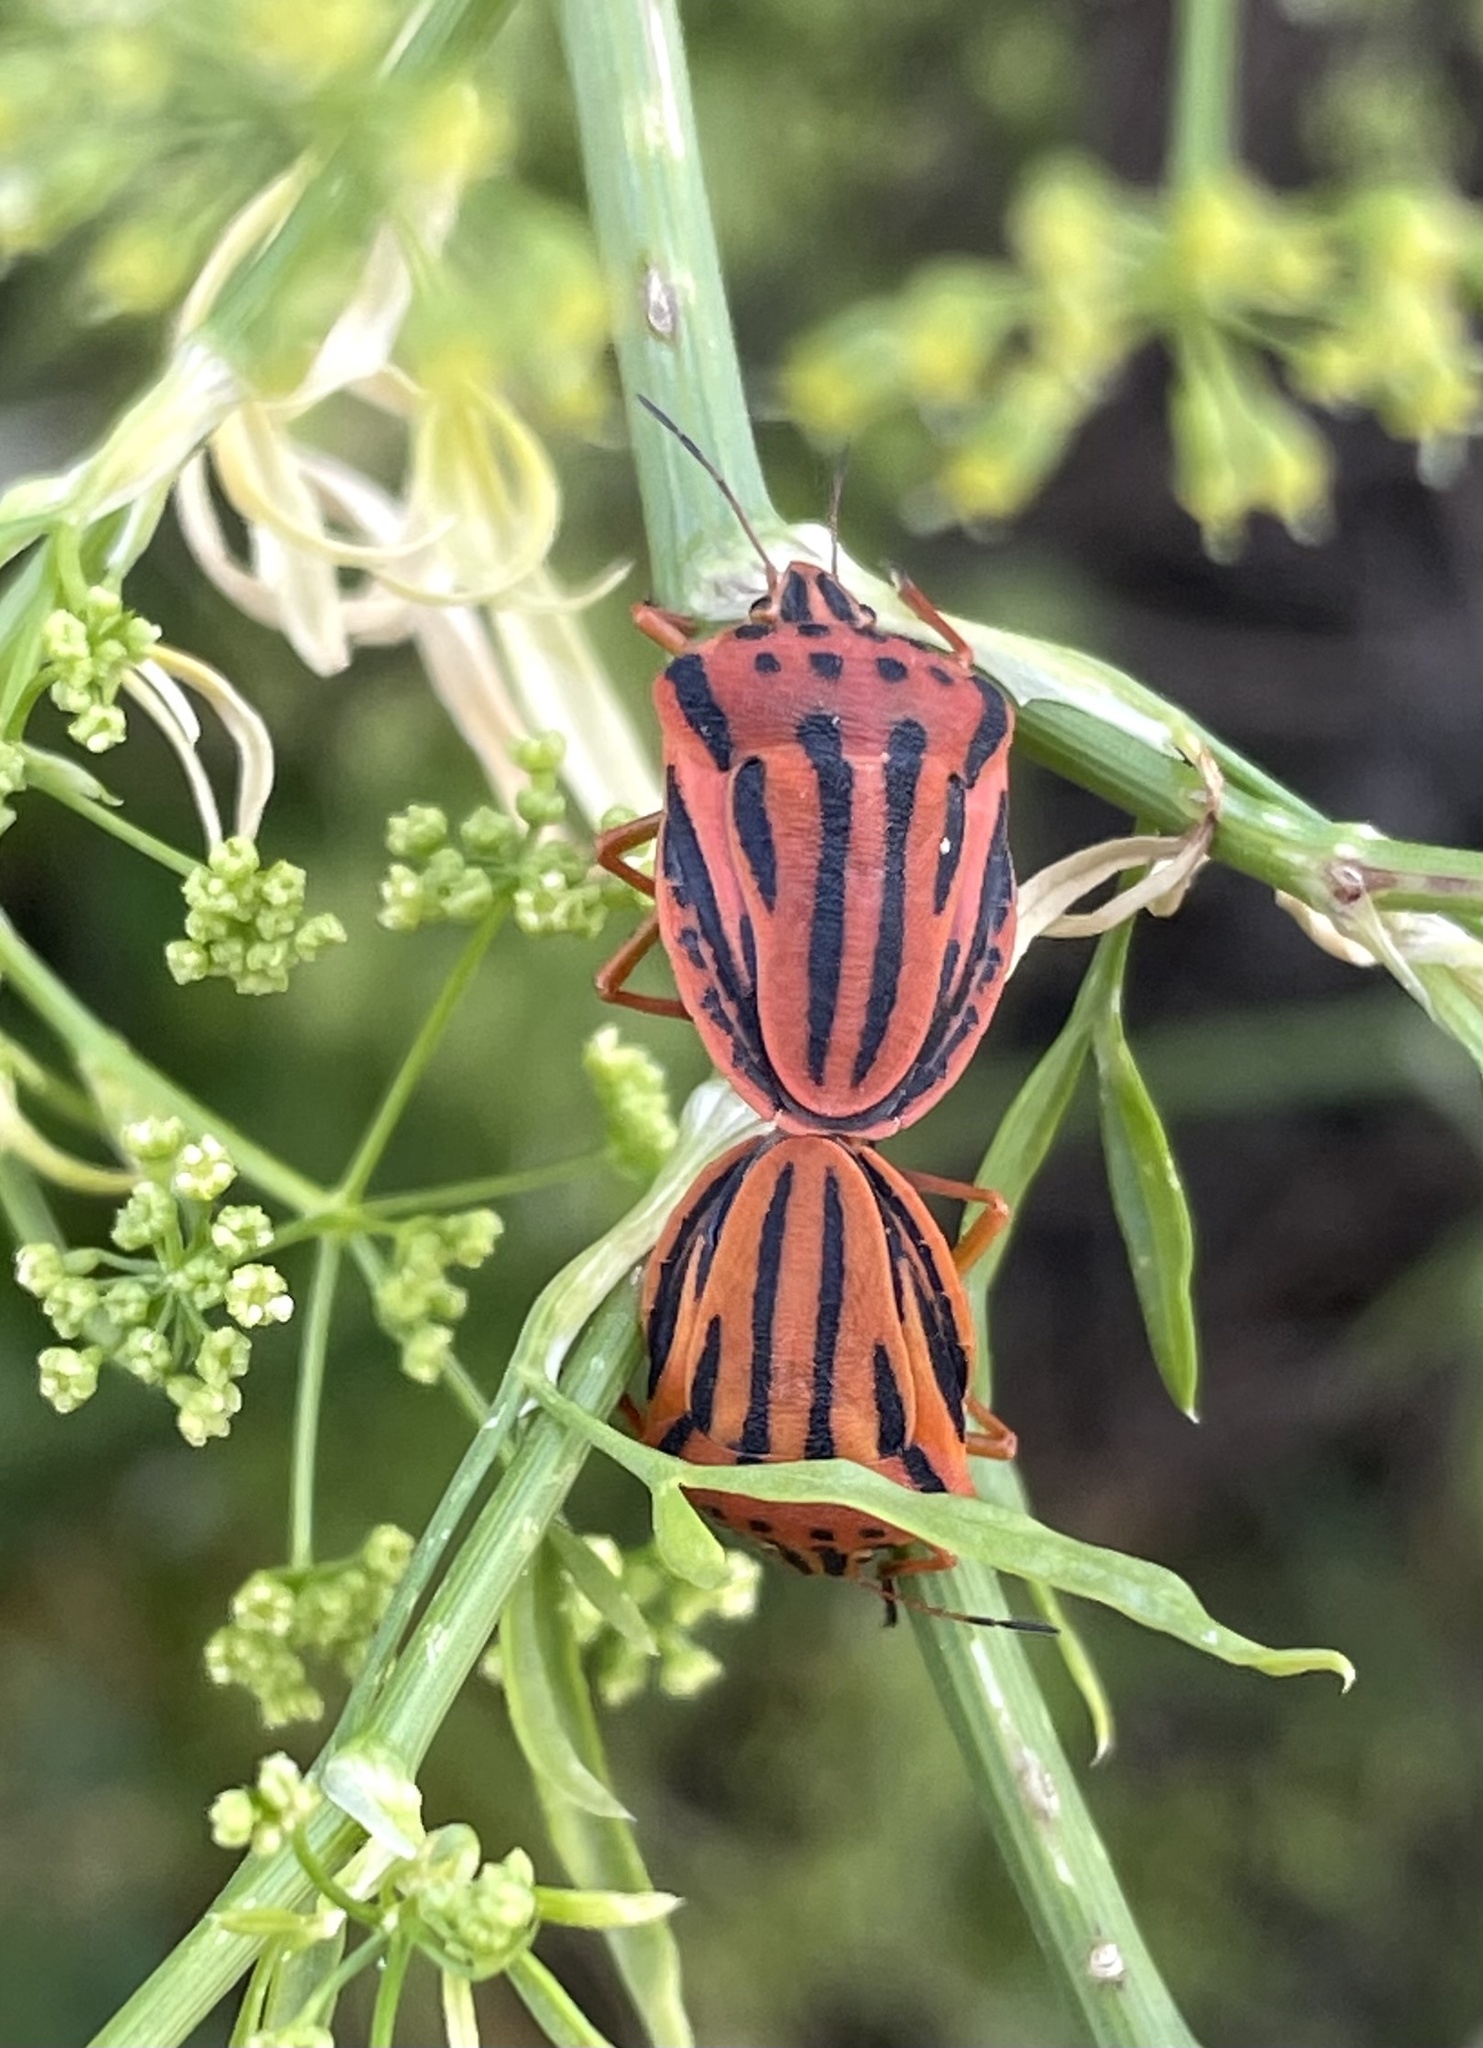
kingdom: Animalia
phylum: Arthropoda
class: Insecta
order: Hemiptera
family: Pentatomidae
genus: Graphosoma
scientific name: Graphosoma semipunctatum
